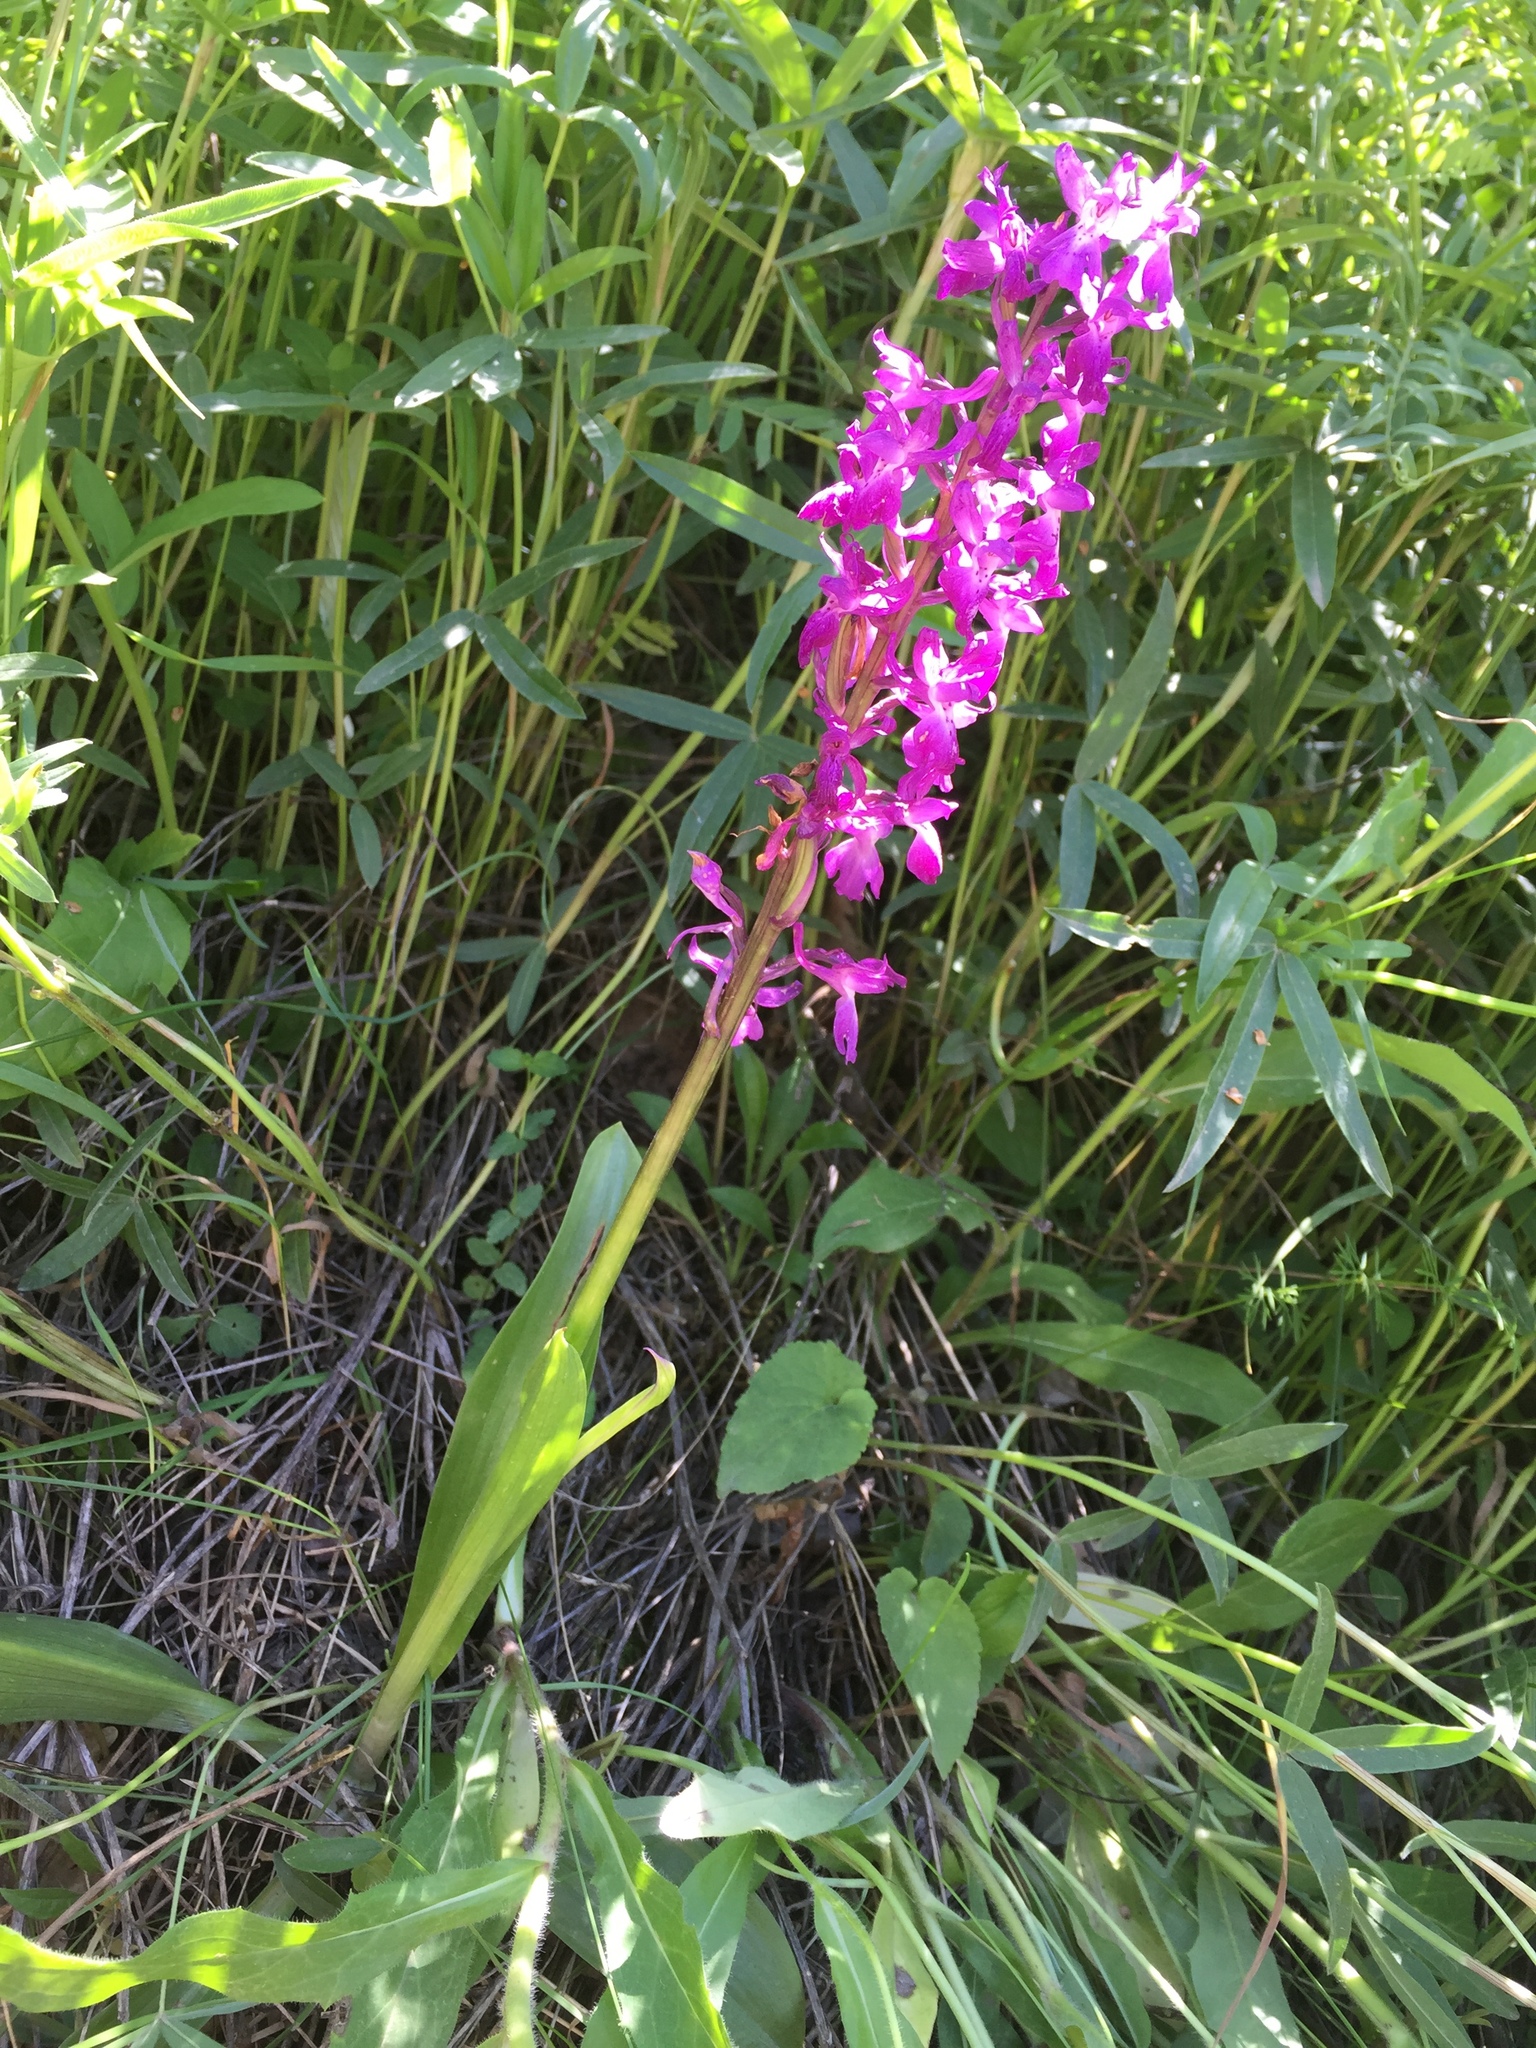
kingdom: Plantae
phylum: Tracheophyta
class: Liliopsida
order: Asparagales
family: Orchidaceae
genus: Orchis
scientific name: Orchis mascula
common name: Early-purple orchid
